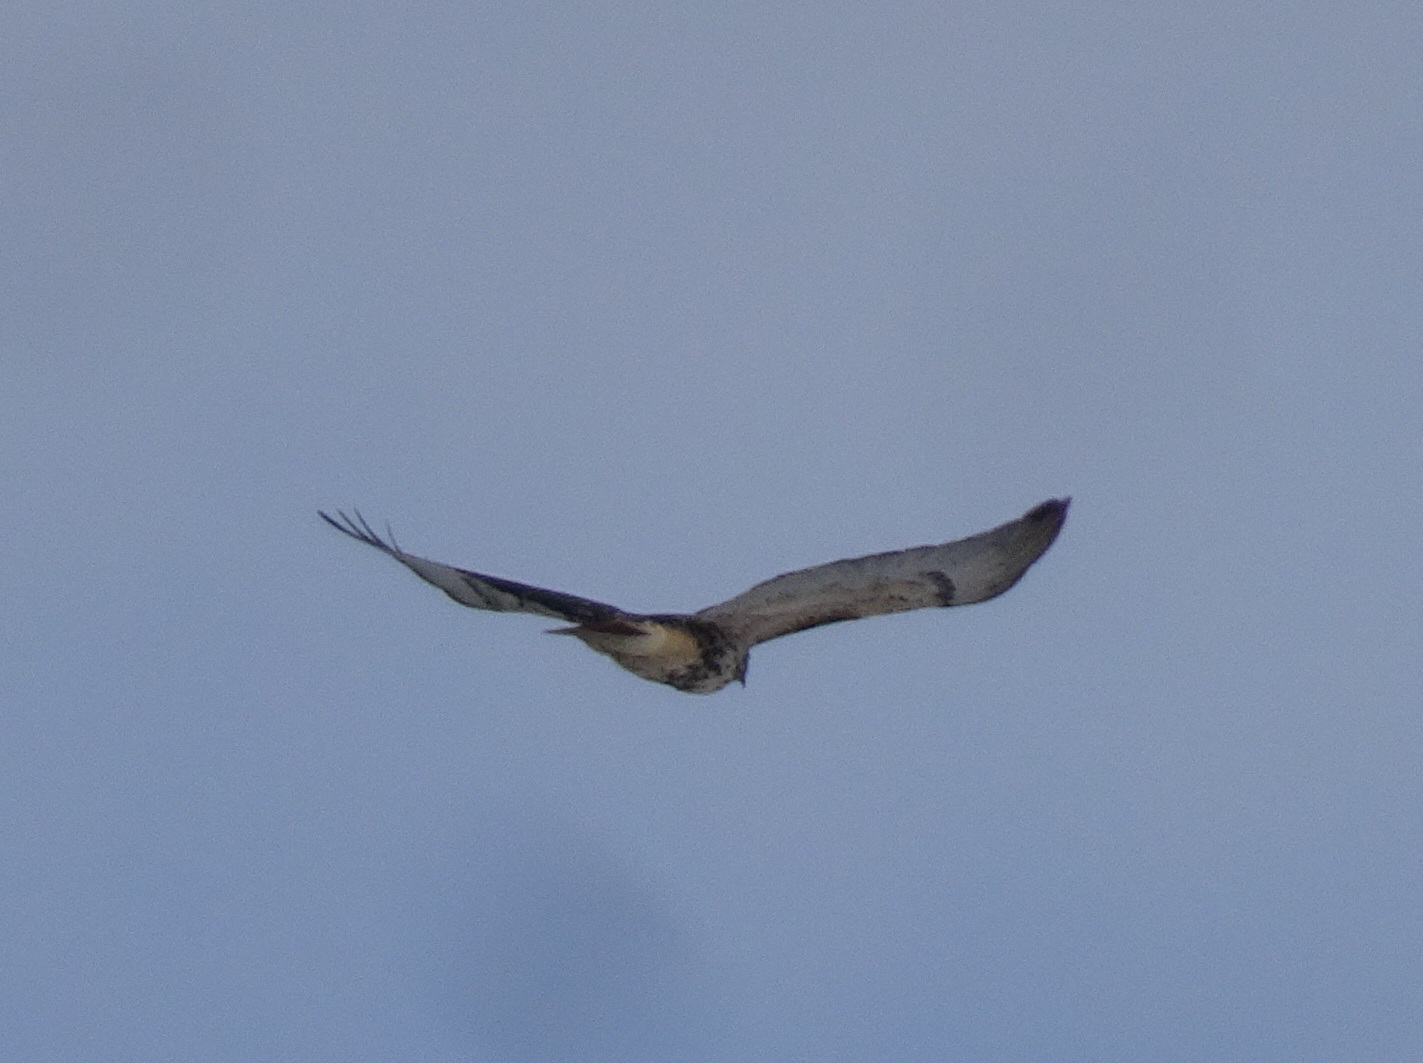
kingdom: Animalia
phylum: Chordata
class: Aves
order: Accipitriformes
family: Accipitridae
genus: Buteo
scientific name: Buteo jamaicensis
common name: Red-tailed hawk
